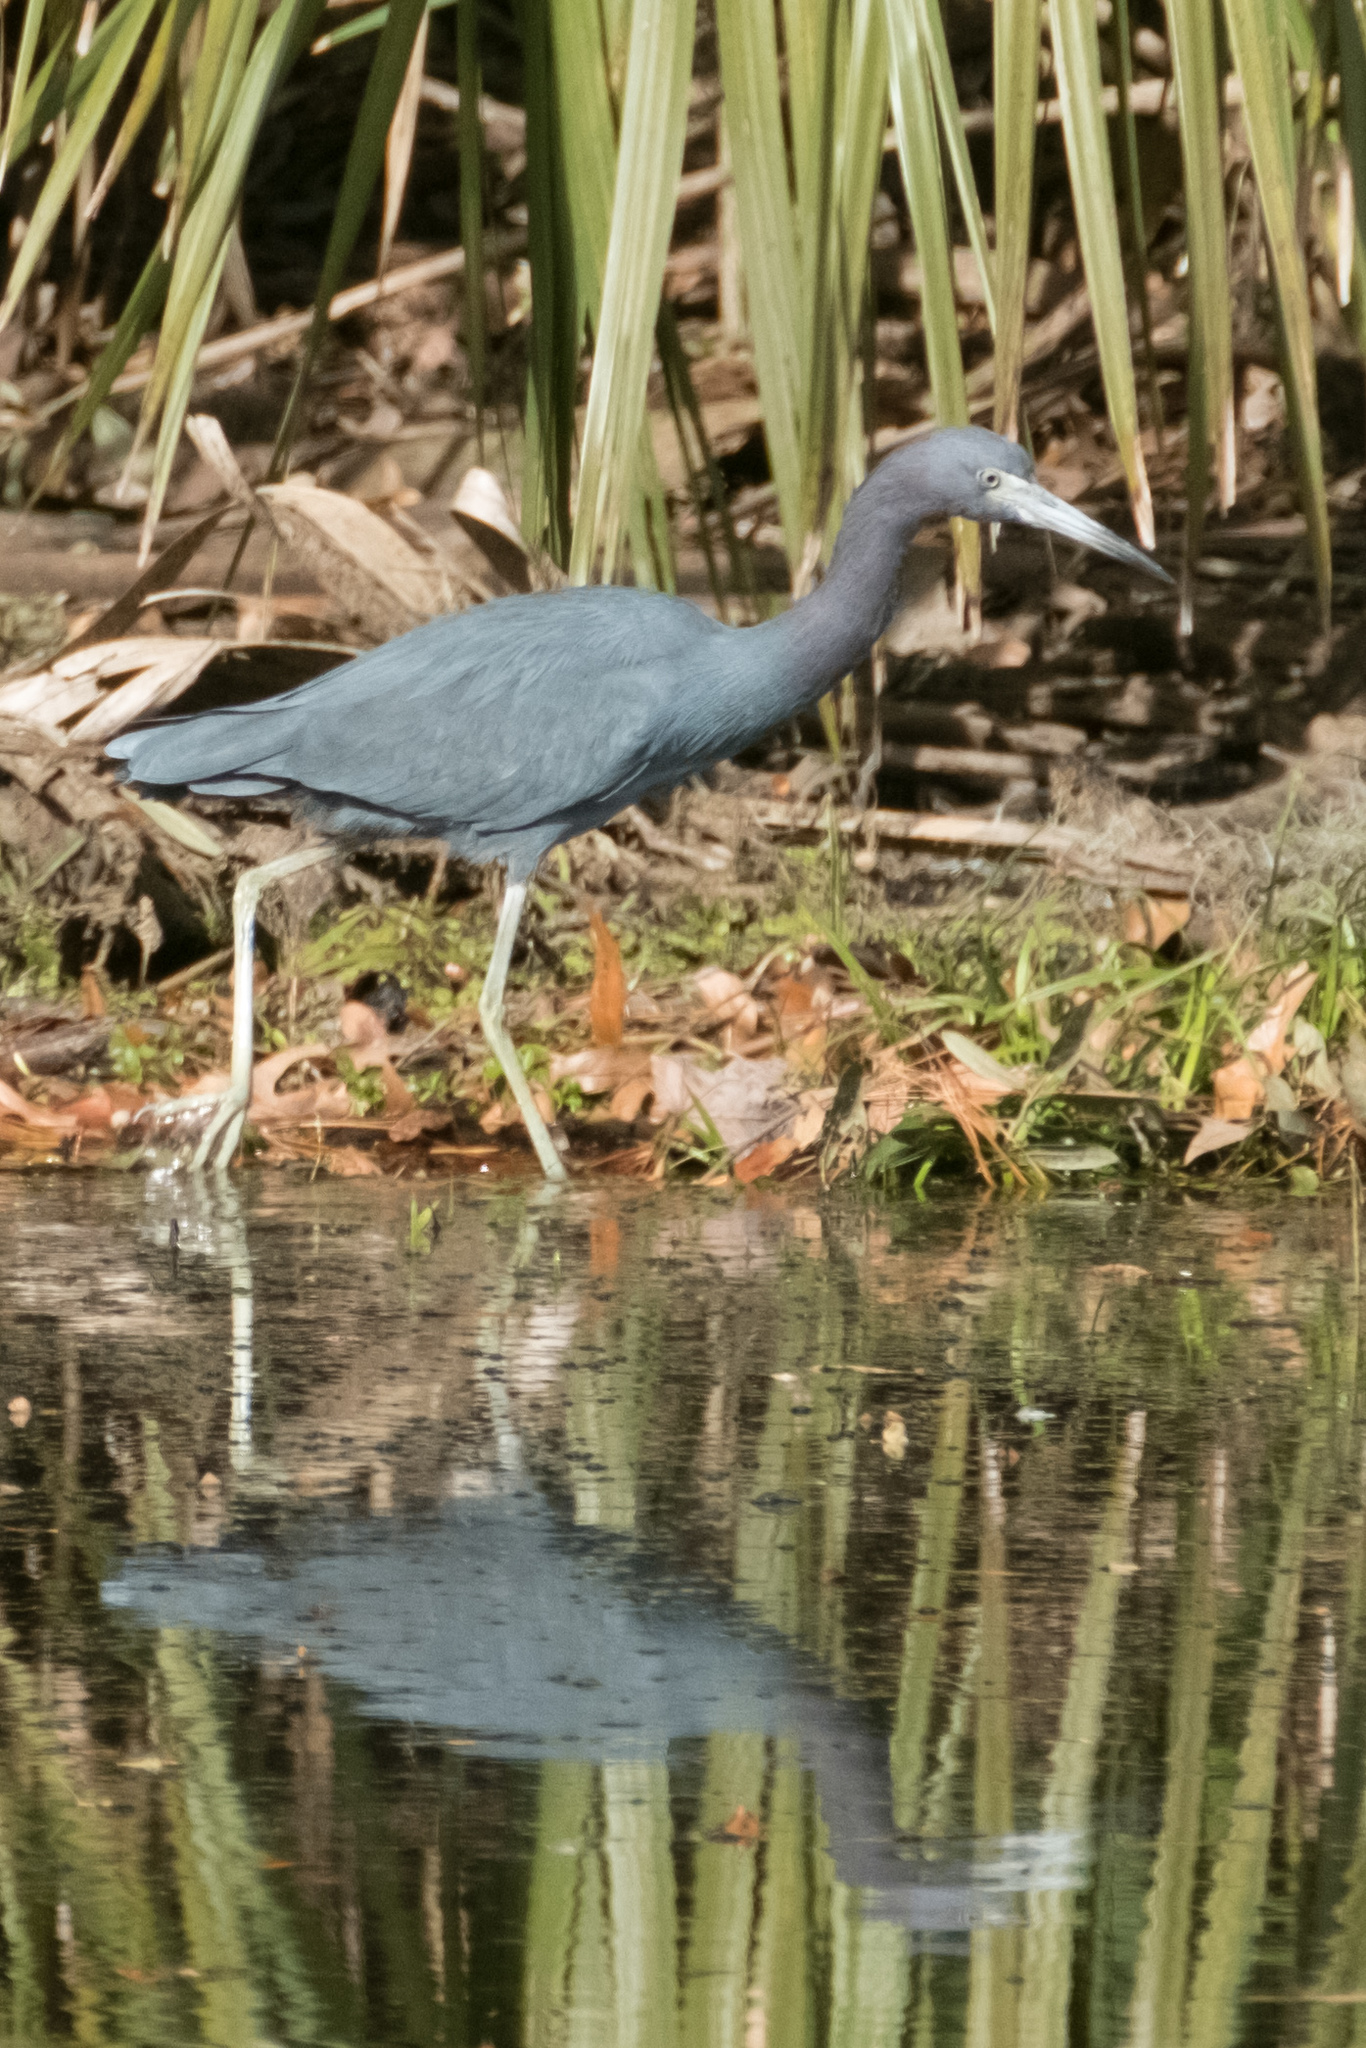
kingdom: Animalia
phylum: Chordata
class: Aves
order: Pelecaniformes
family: Ardeidae
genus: Egretta
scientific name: Egretta caerulea
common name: Little blue heron
